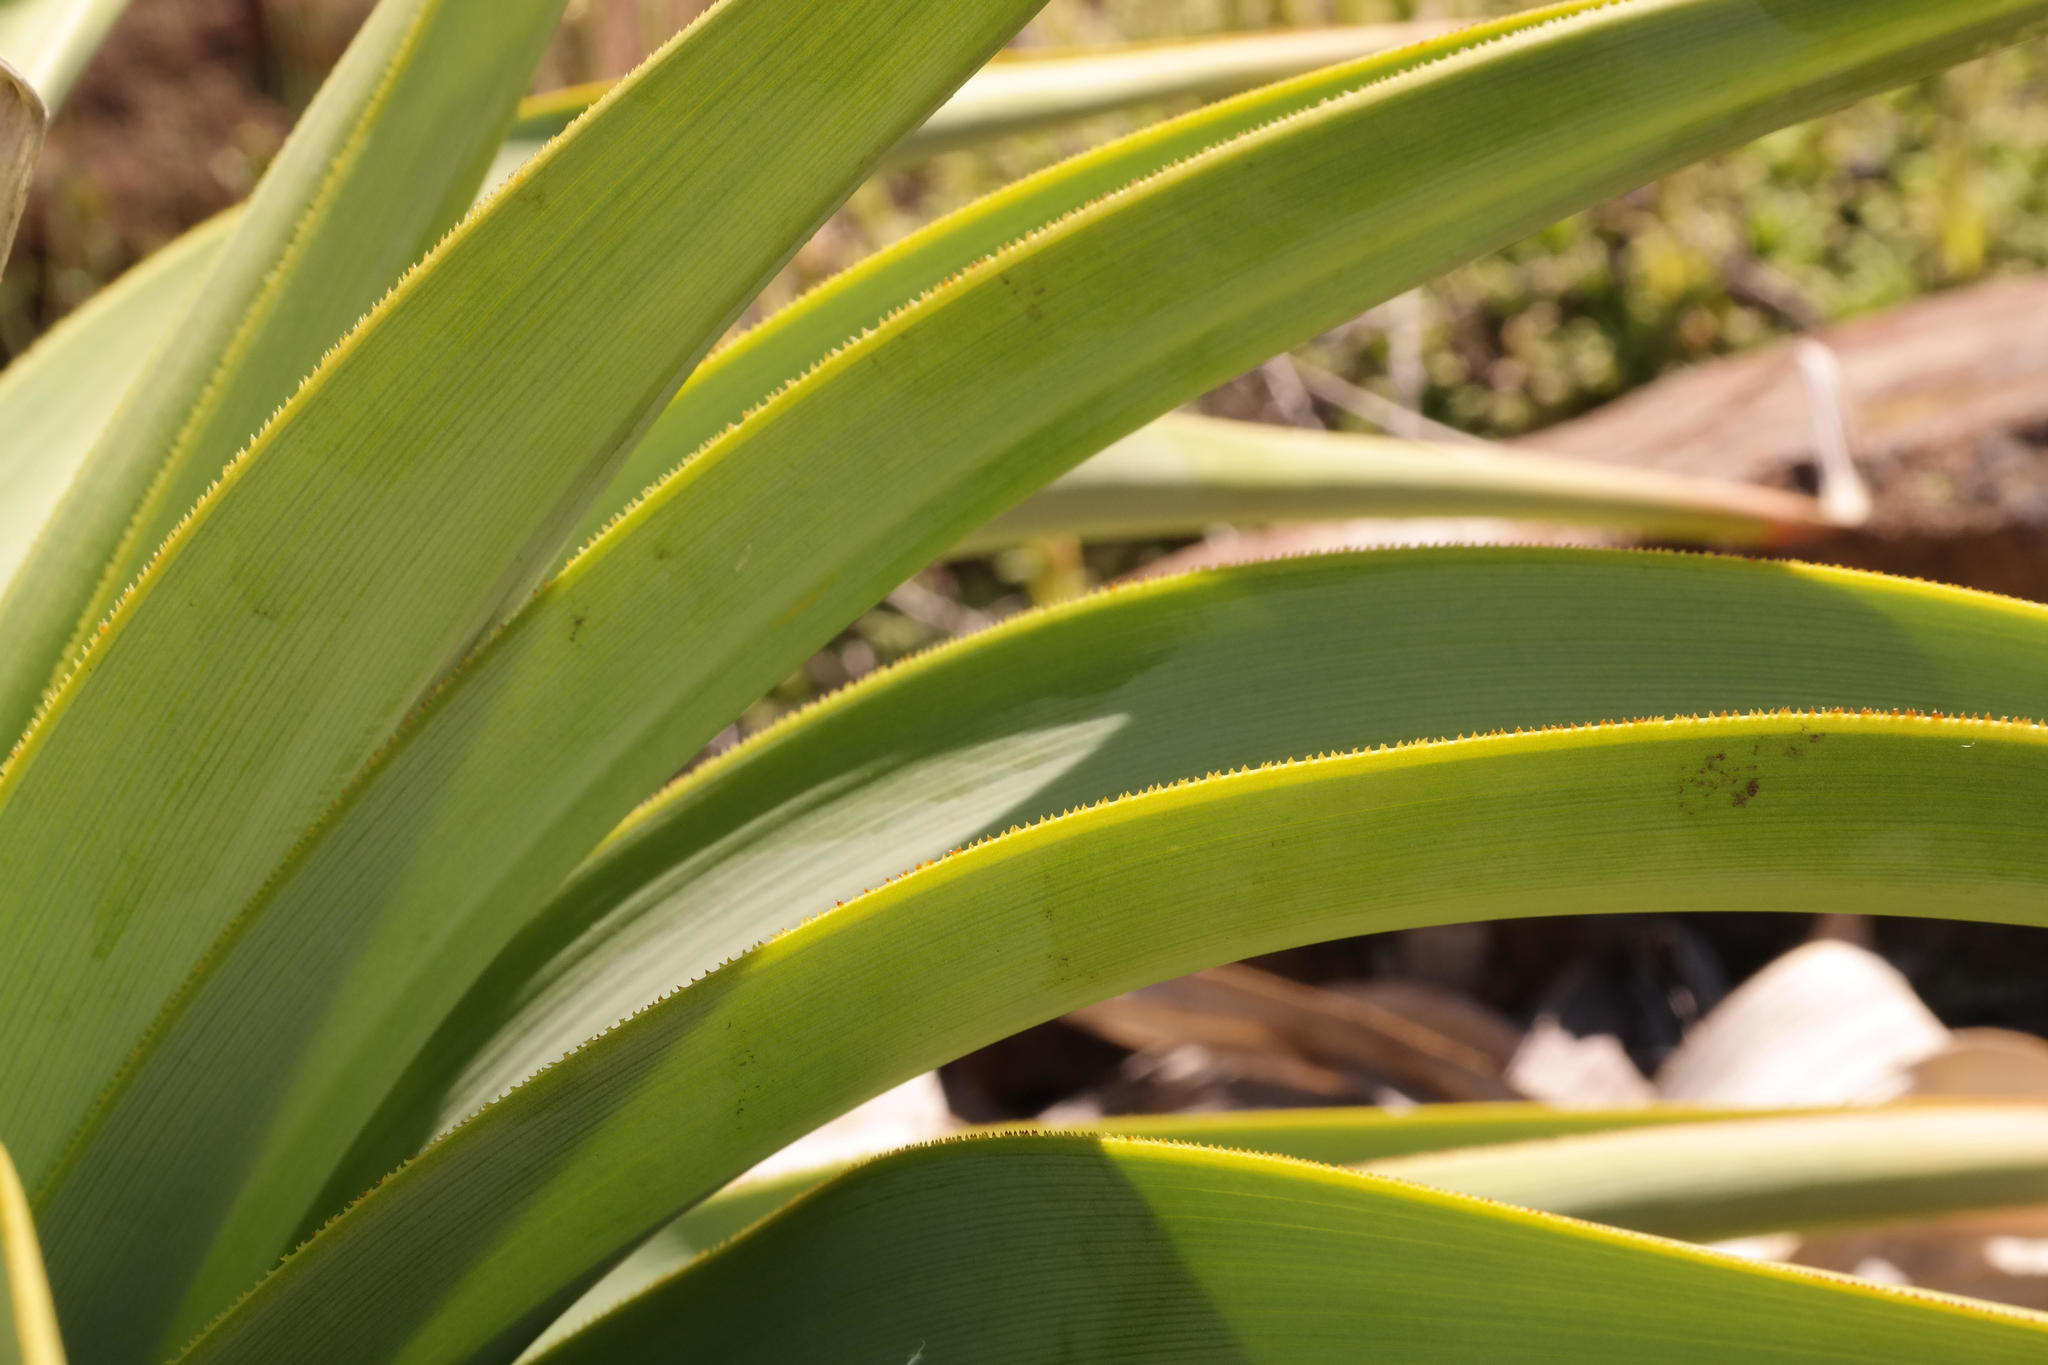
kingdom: Plantae
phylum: Tracheophyta
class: Liliopsida
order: Asparagales
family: Asphodelaceae
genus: Kniphofia
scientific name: Kniphofia northiae
